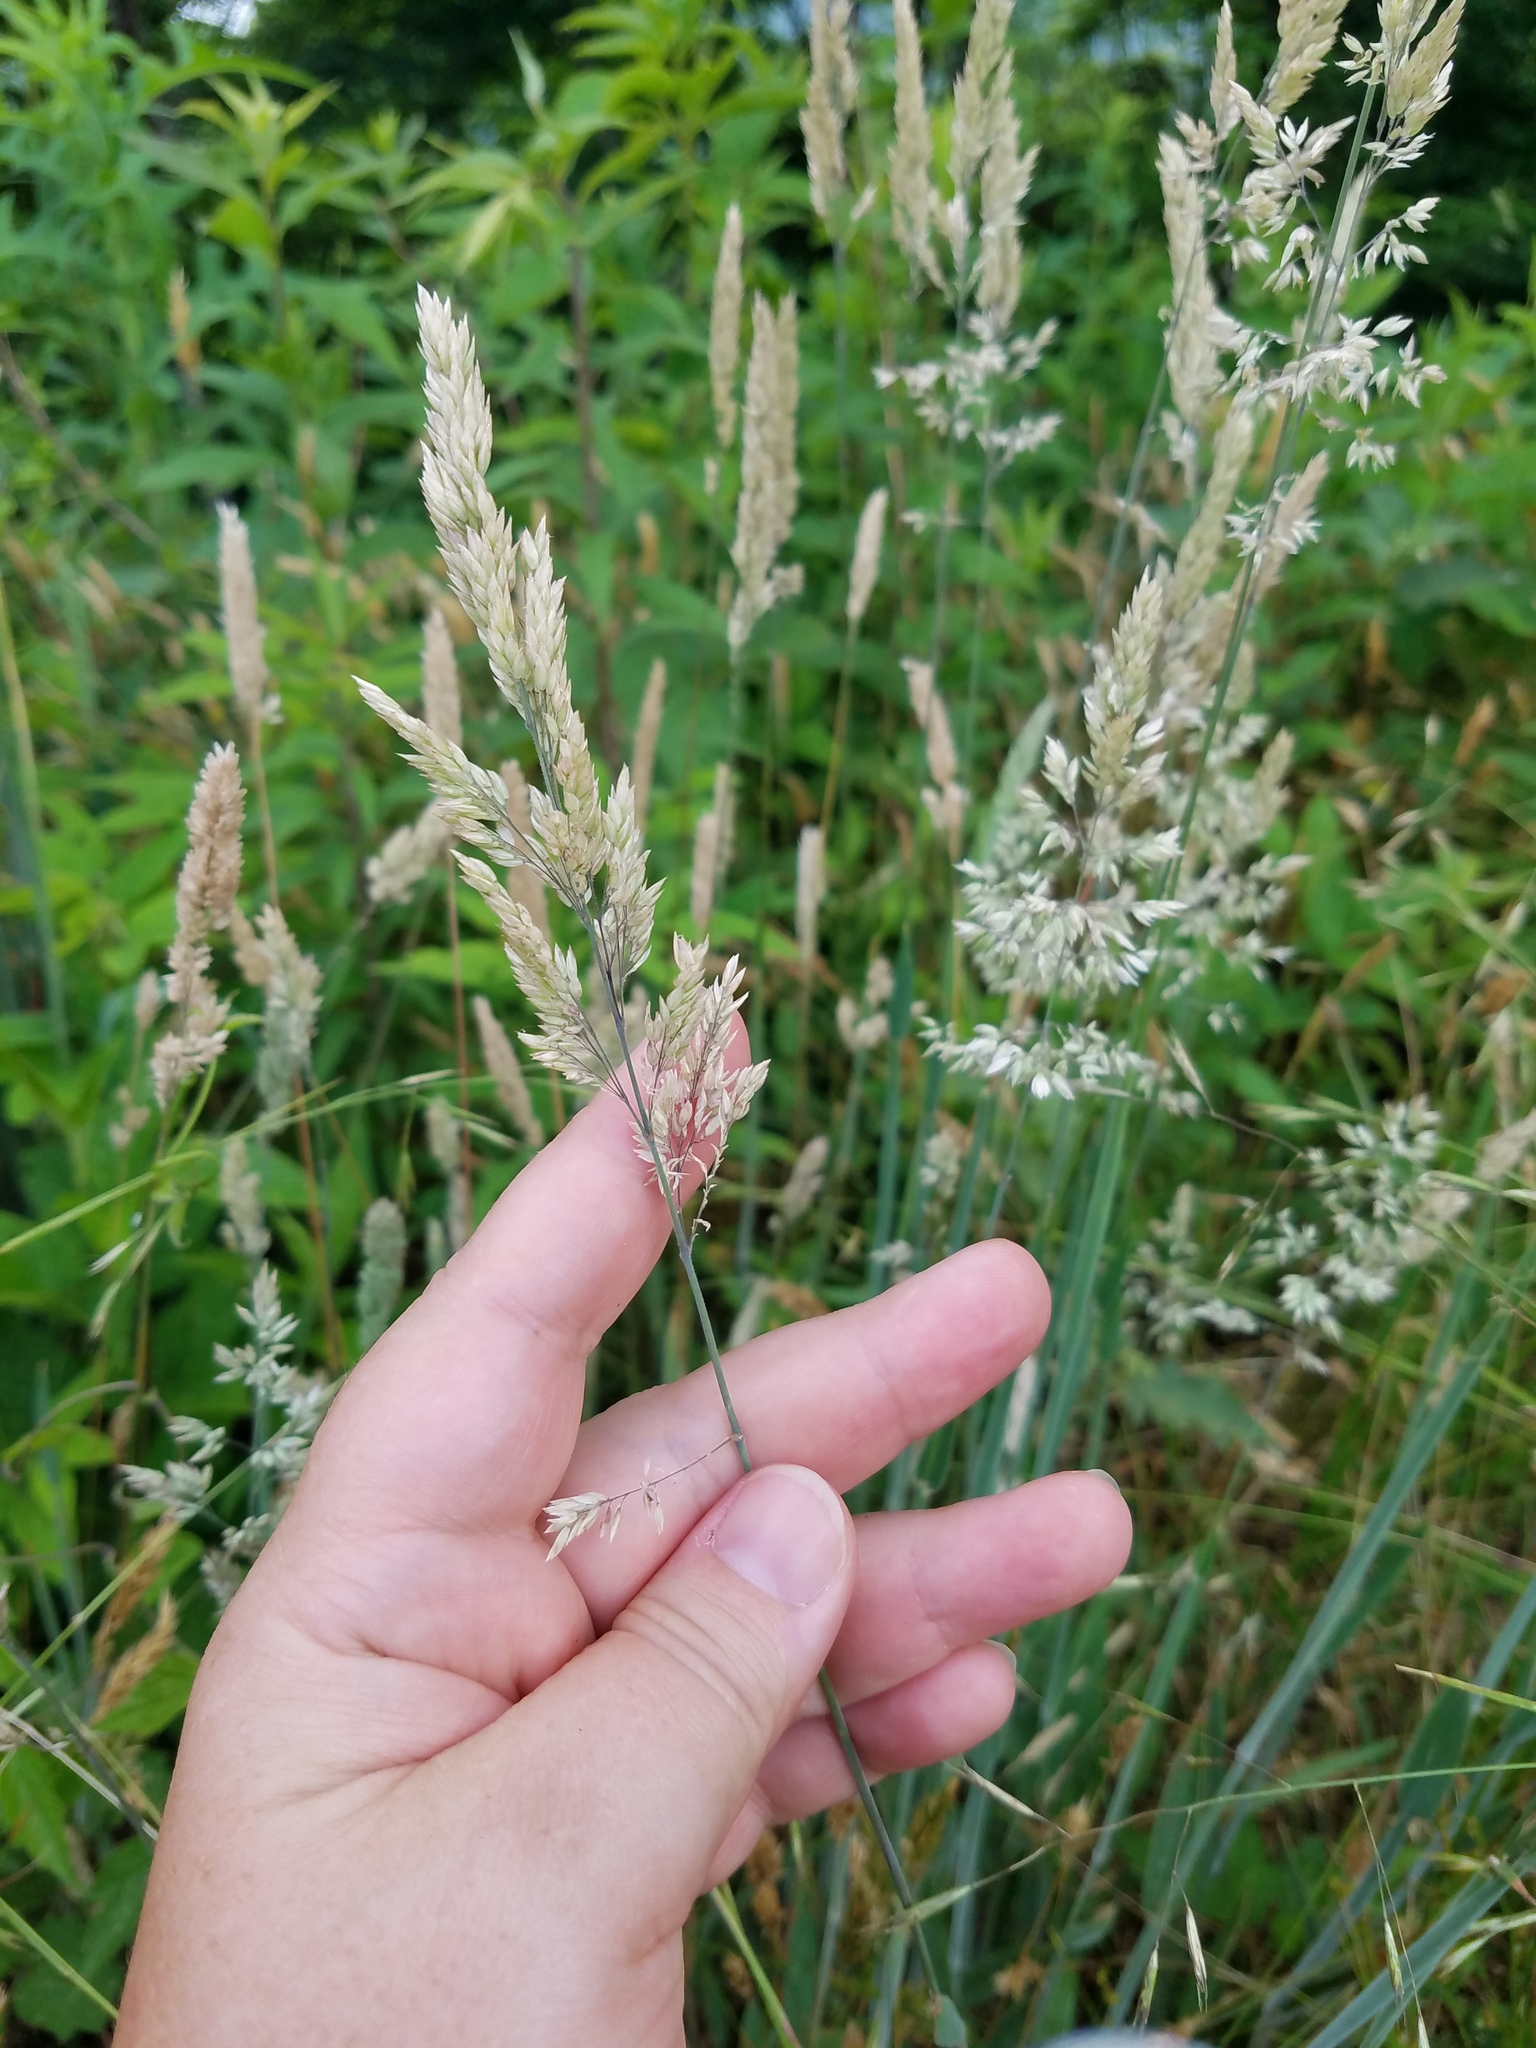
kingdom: Plantae
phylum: Tracheophyta
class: Liliopsida
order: Poales
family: Poaceae
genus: Holcus
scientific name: Holcus lanatus
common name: Yorkshire-fog
